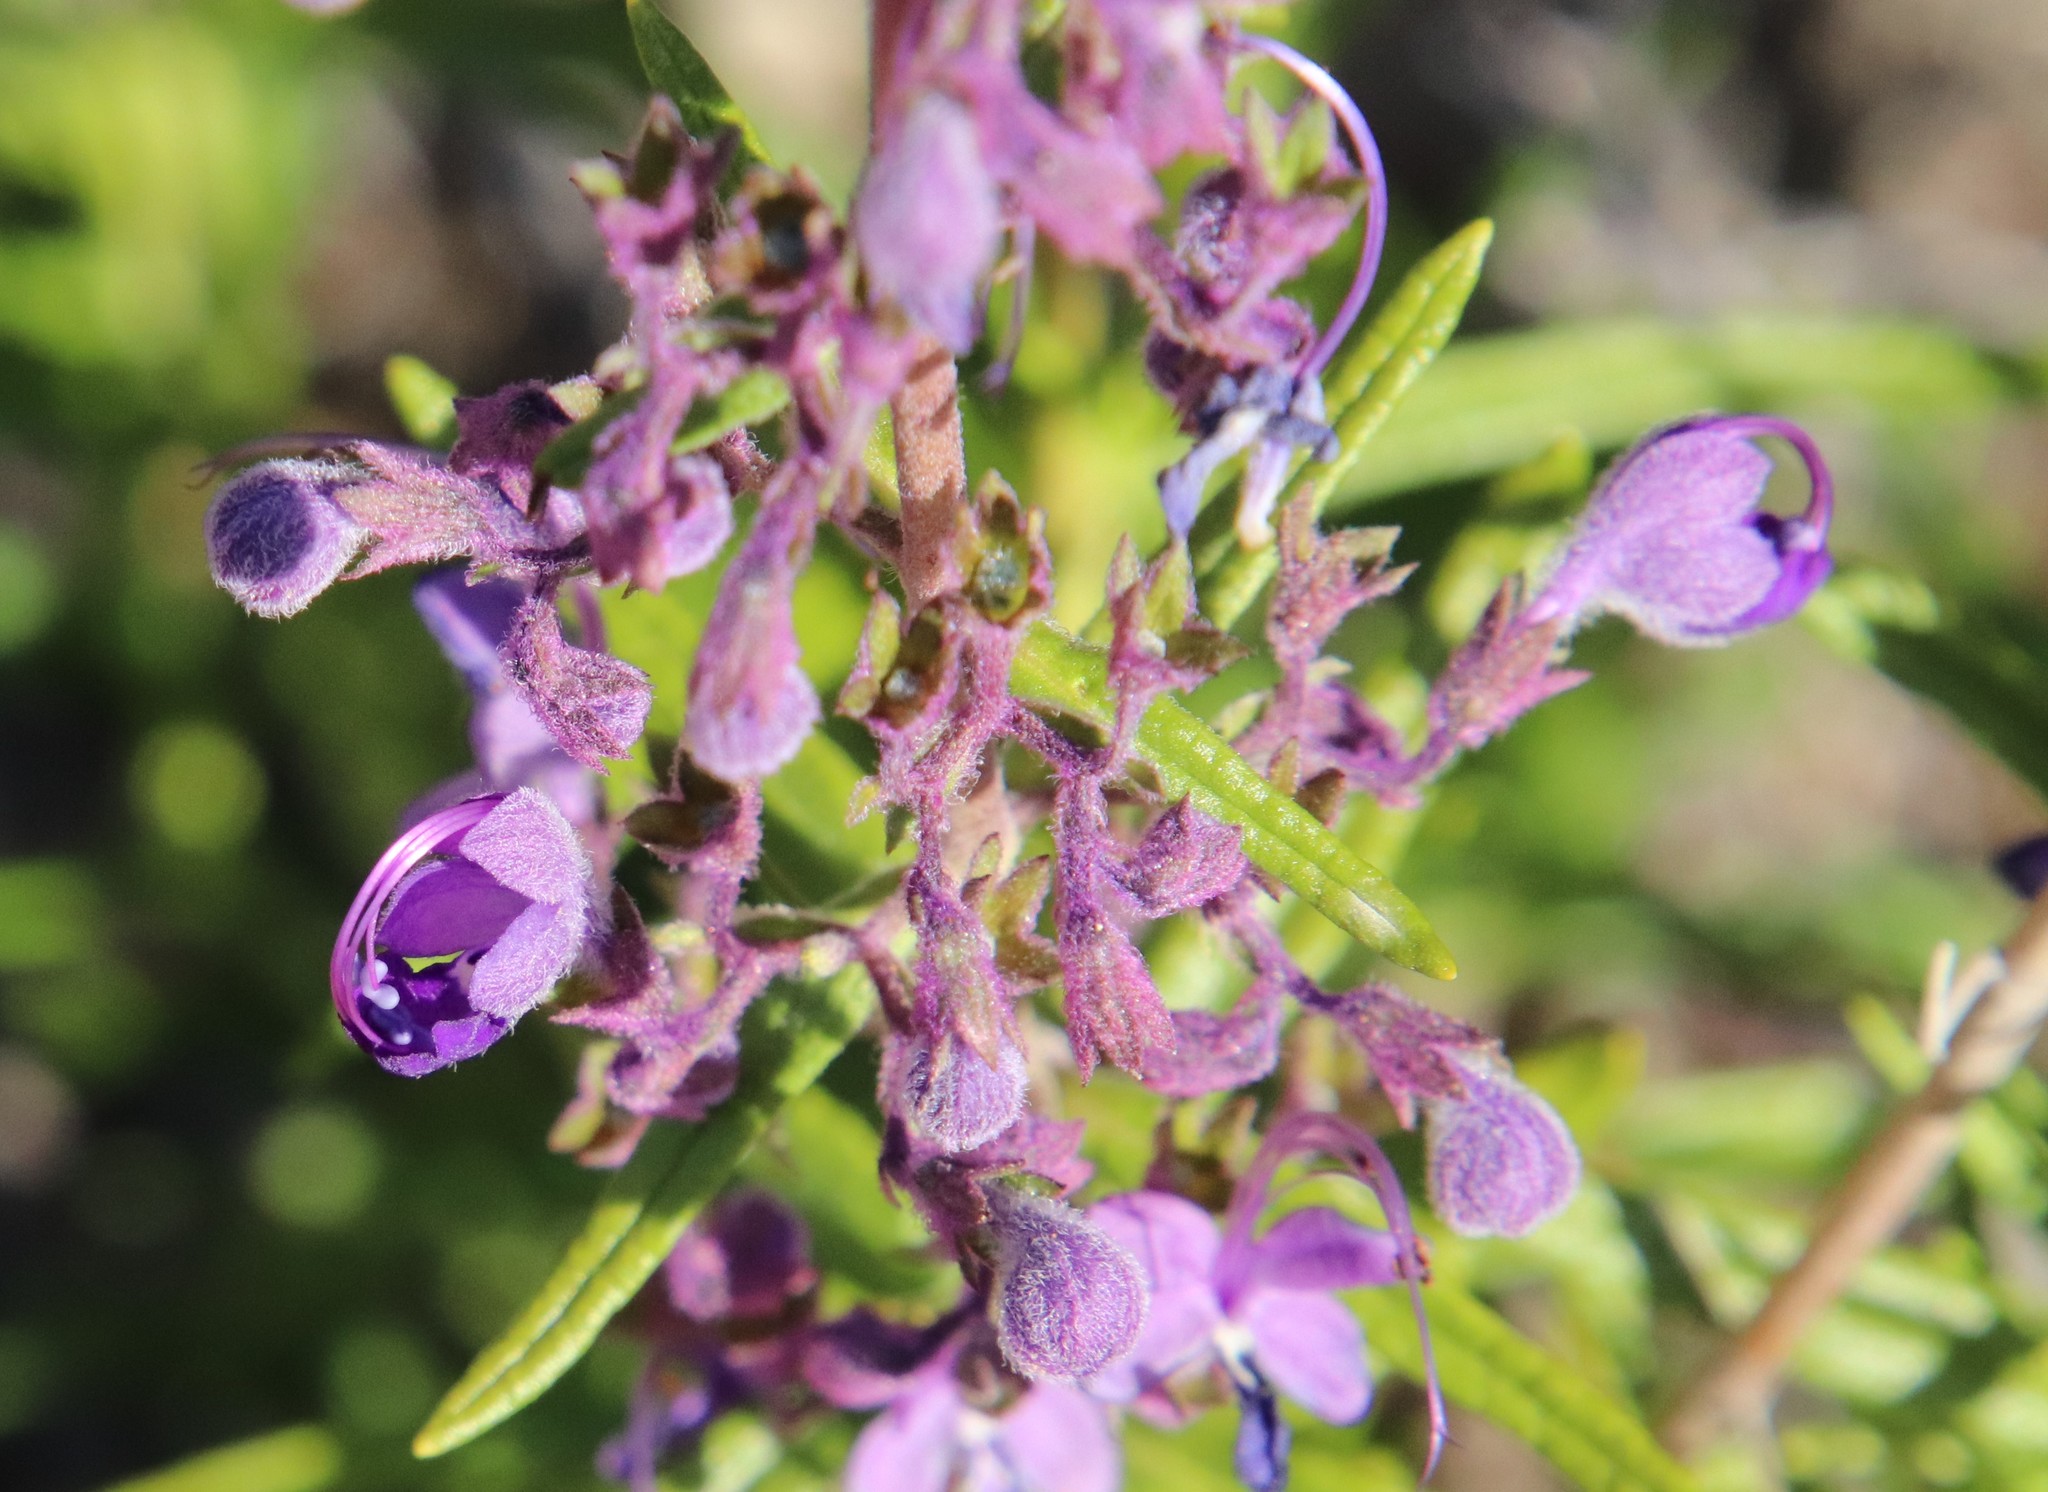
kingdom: Plantae
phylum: Tracheophyta
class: Magnoliopsida
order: Lamiales
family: Lamiaceae
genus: Trichostema
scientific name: Trichostema parishii
